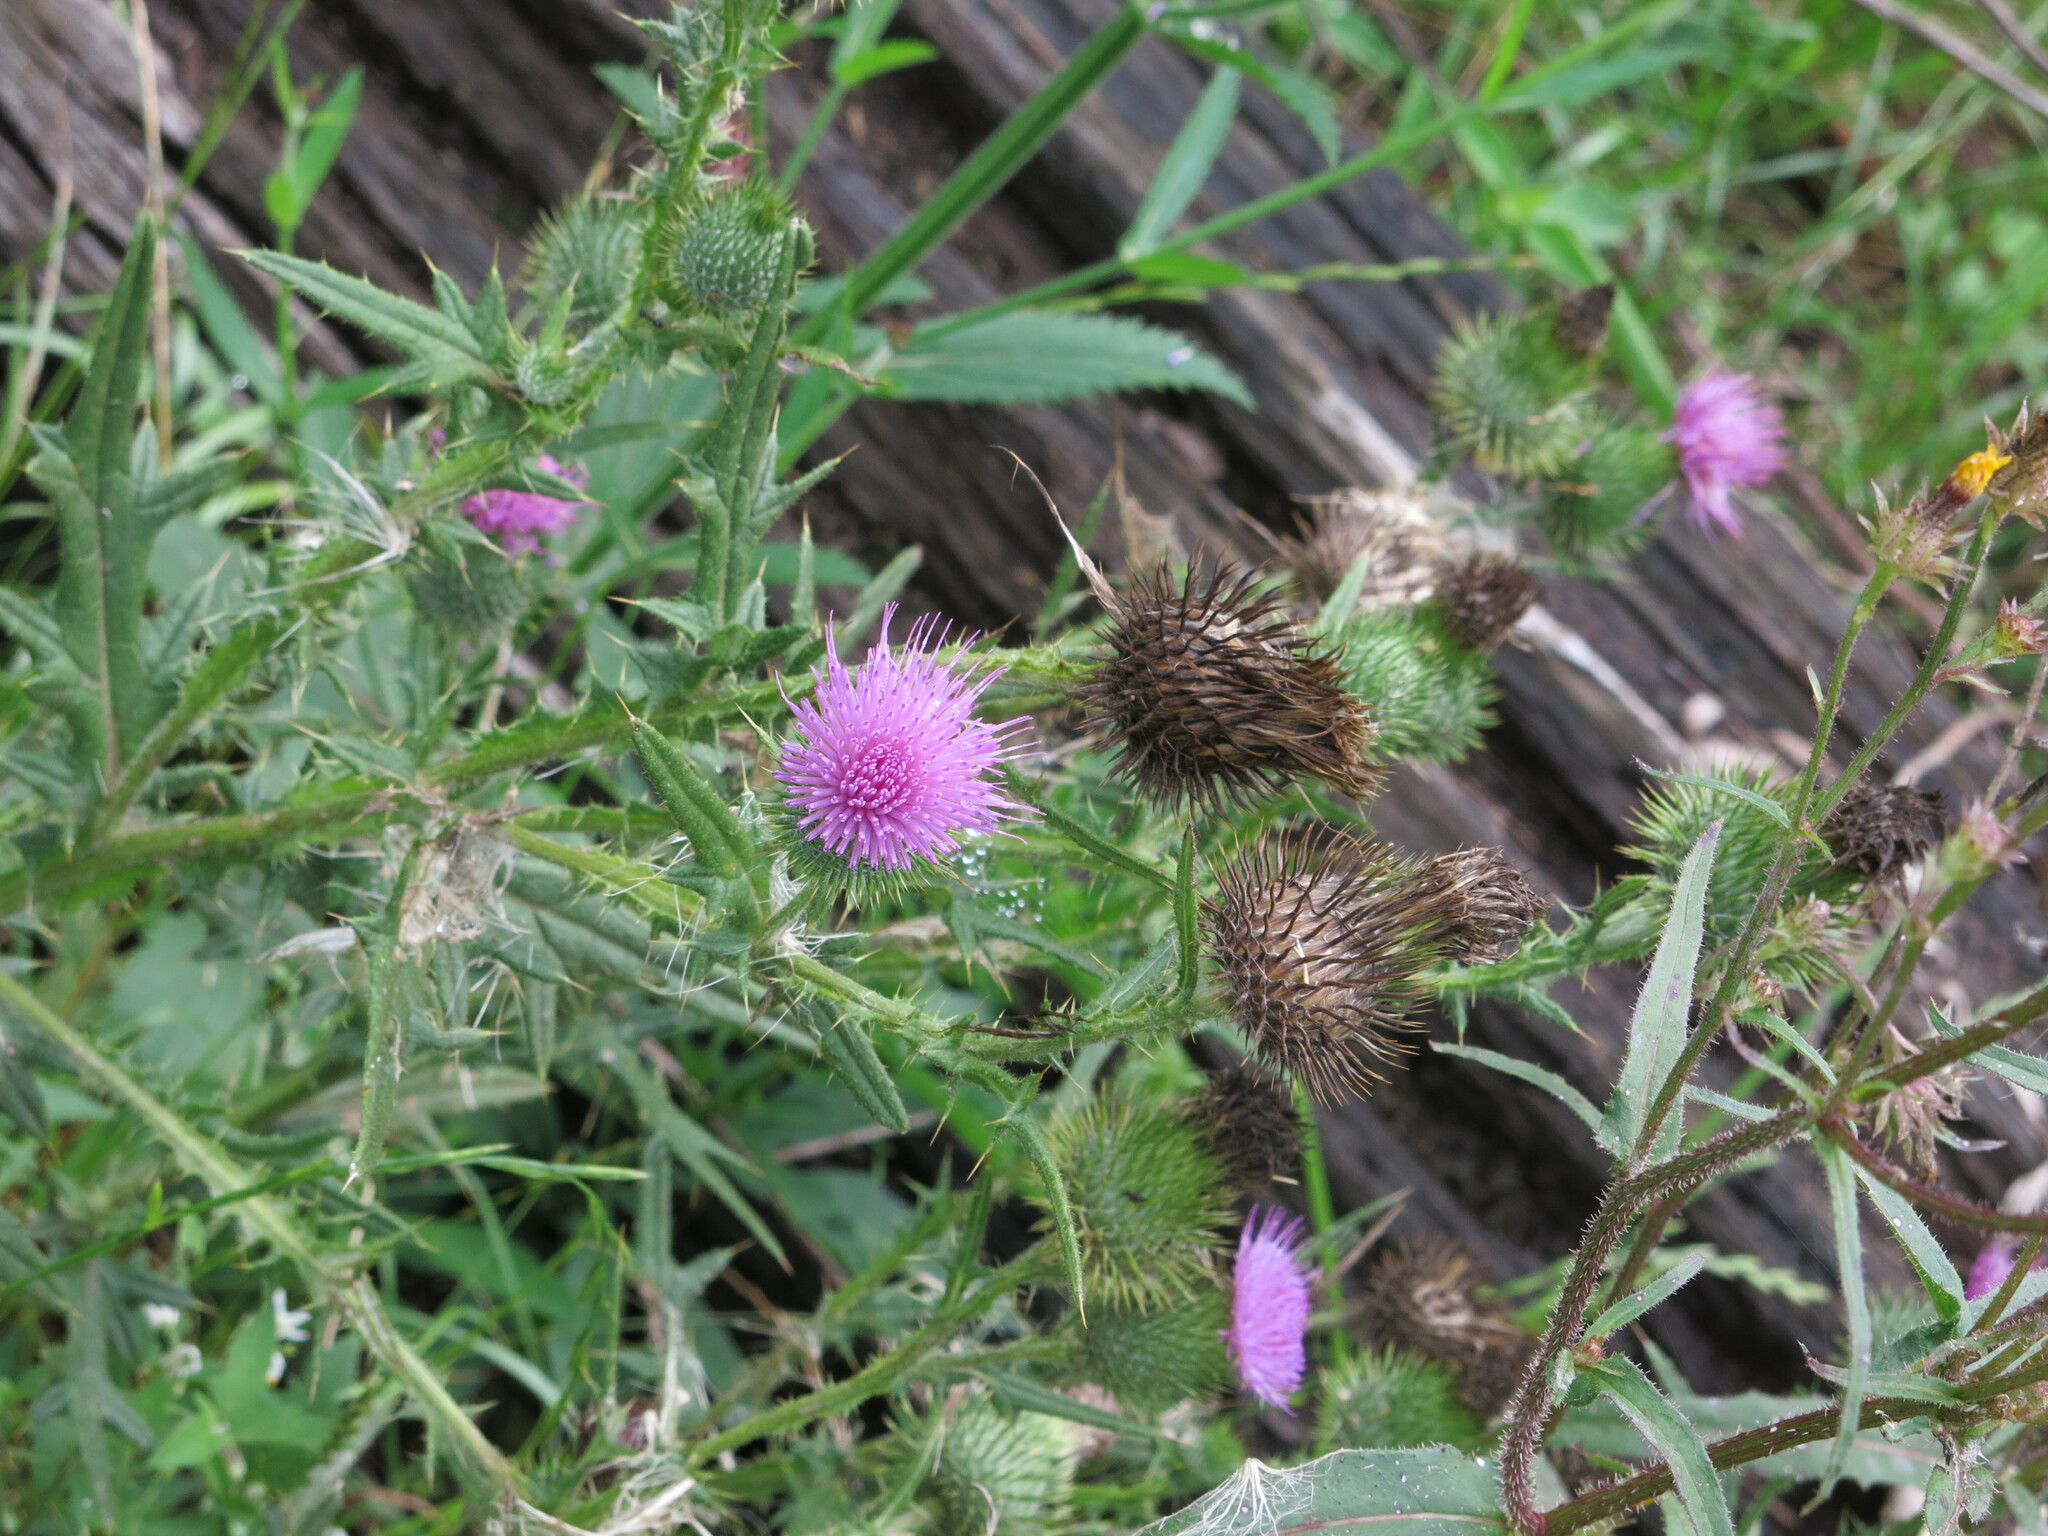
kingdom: Plantae
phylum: Tracheophyta
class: Magnoliopsida
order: Asterales
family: Asteraceae
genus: Cirsium
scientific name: Cirsium vulgare
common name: Bull thistle
